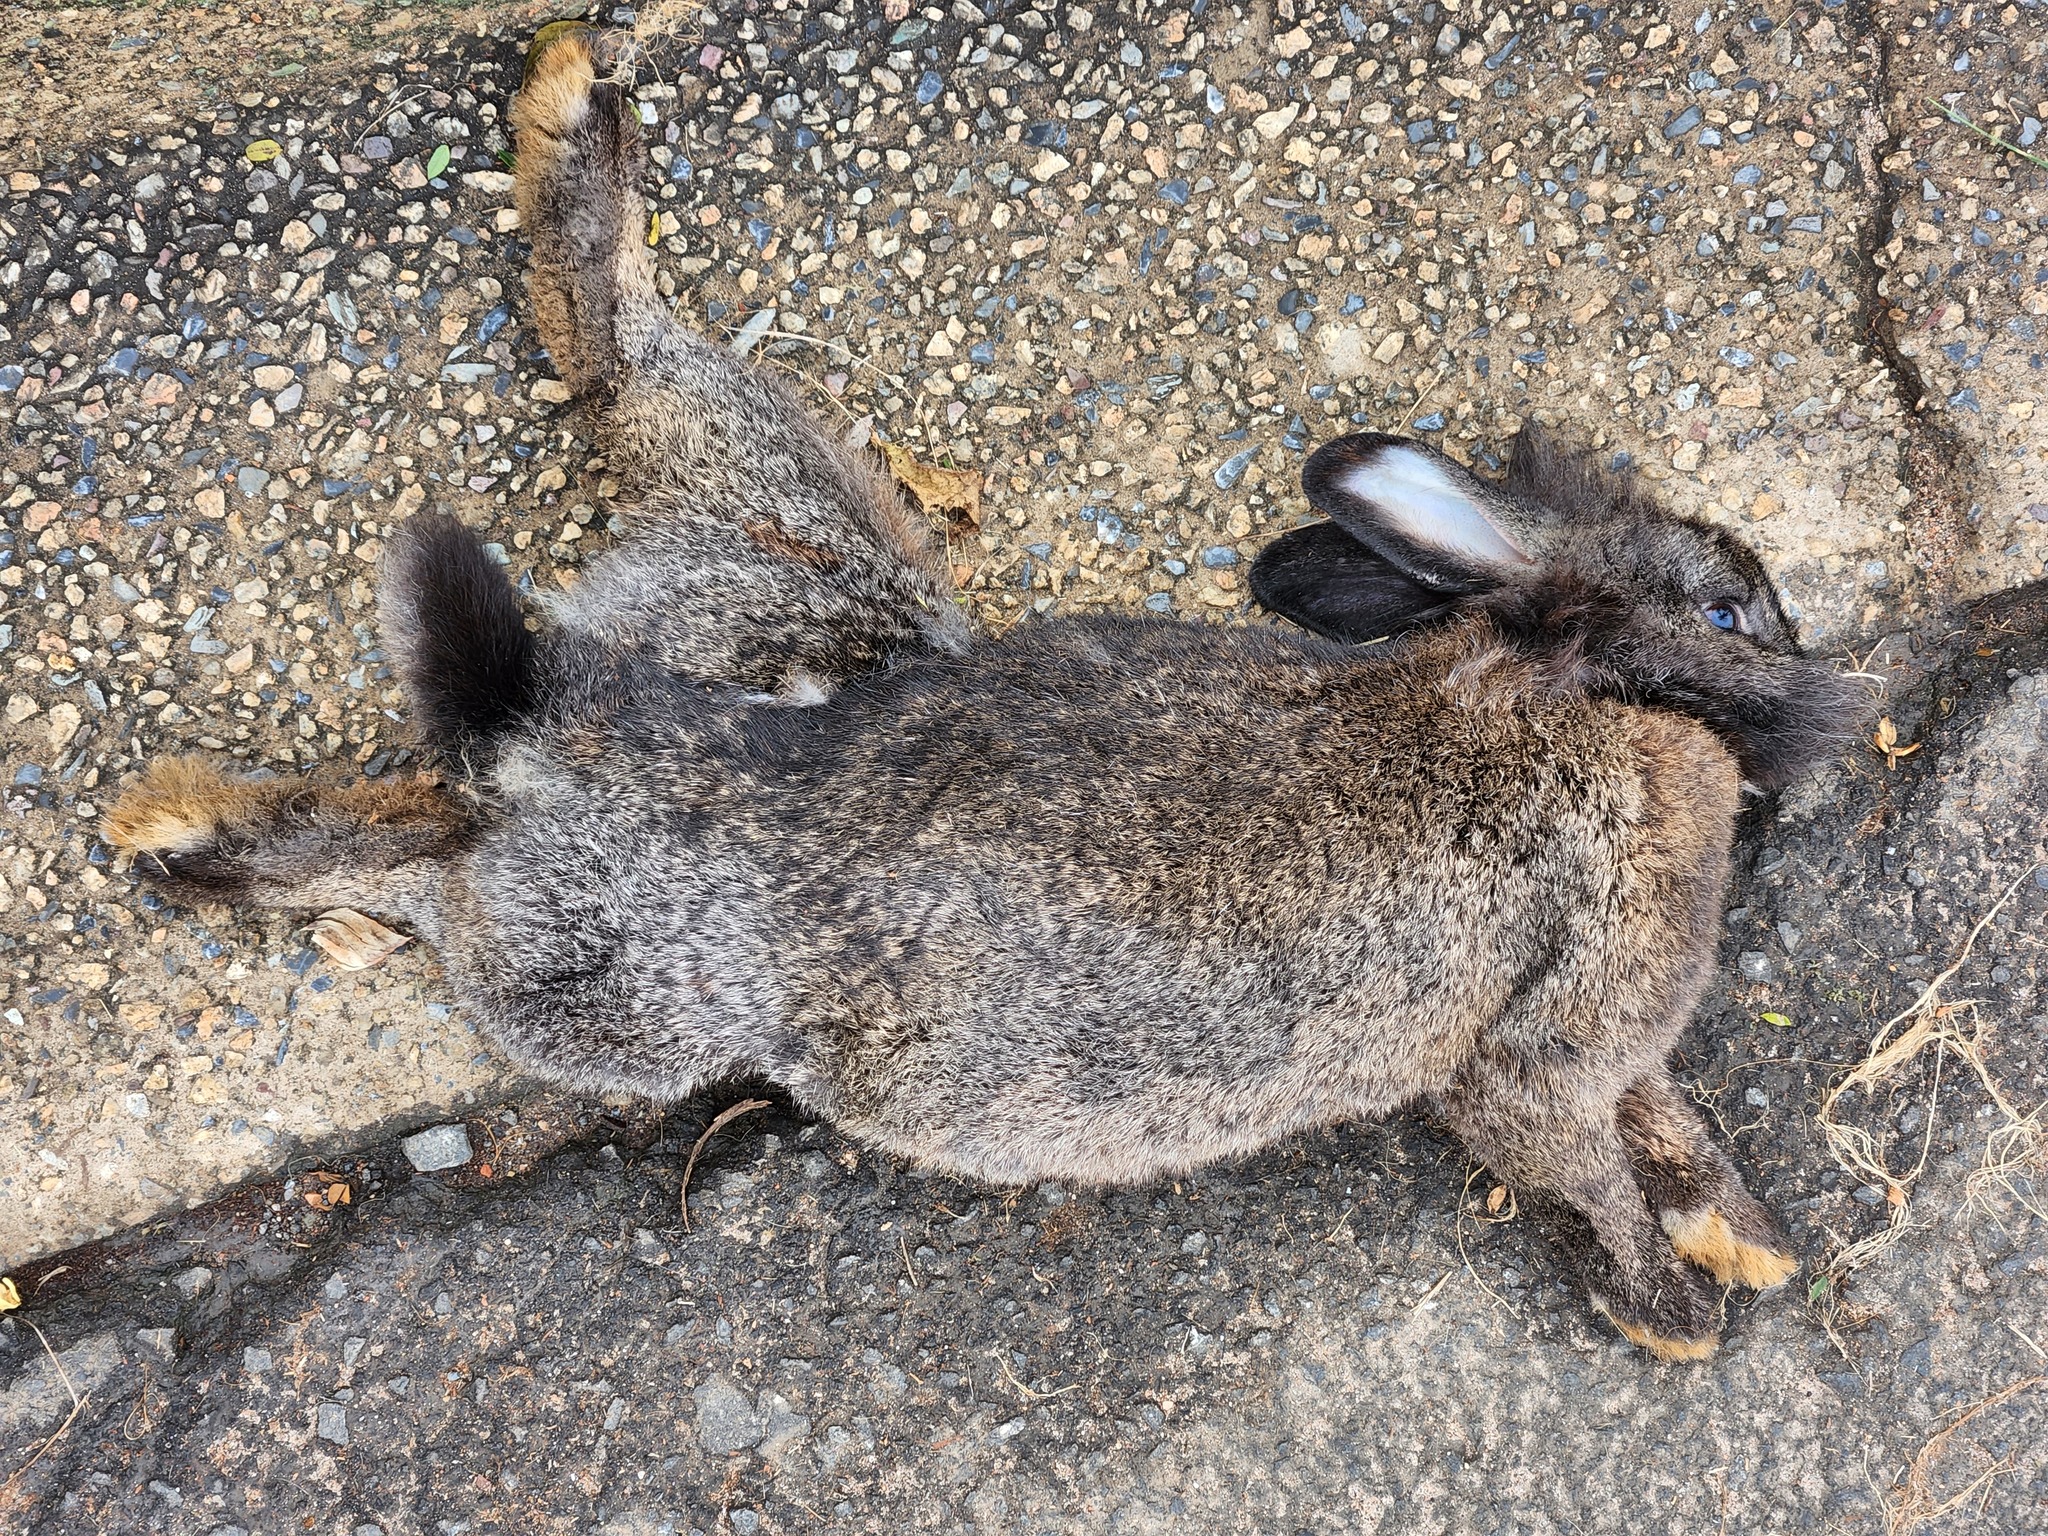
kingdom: Animalia
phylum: Chordata
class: Mammalia
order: Lagomorpha
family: Leporidae
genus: Sylvilagus
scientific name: Sylvilagus brasiliensis
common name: Tapeti
